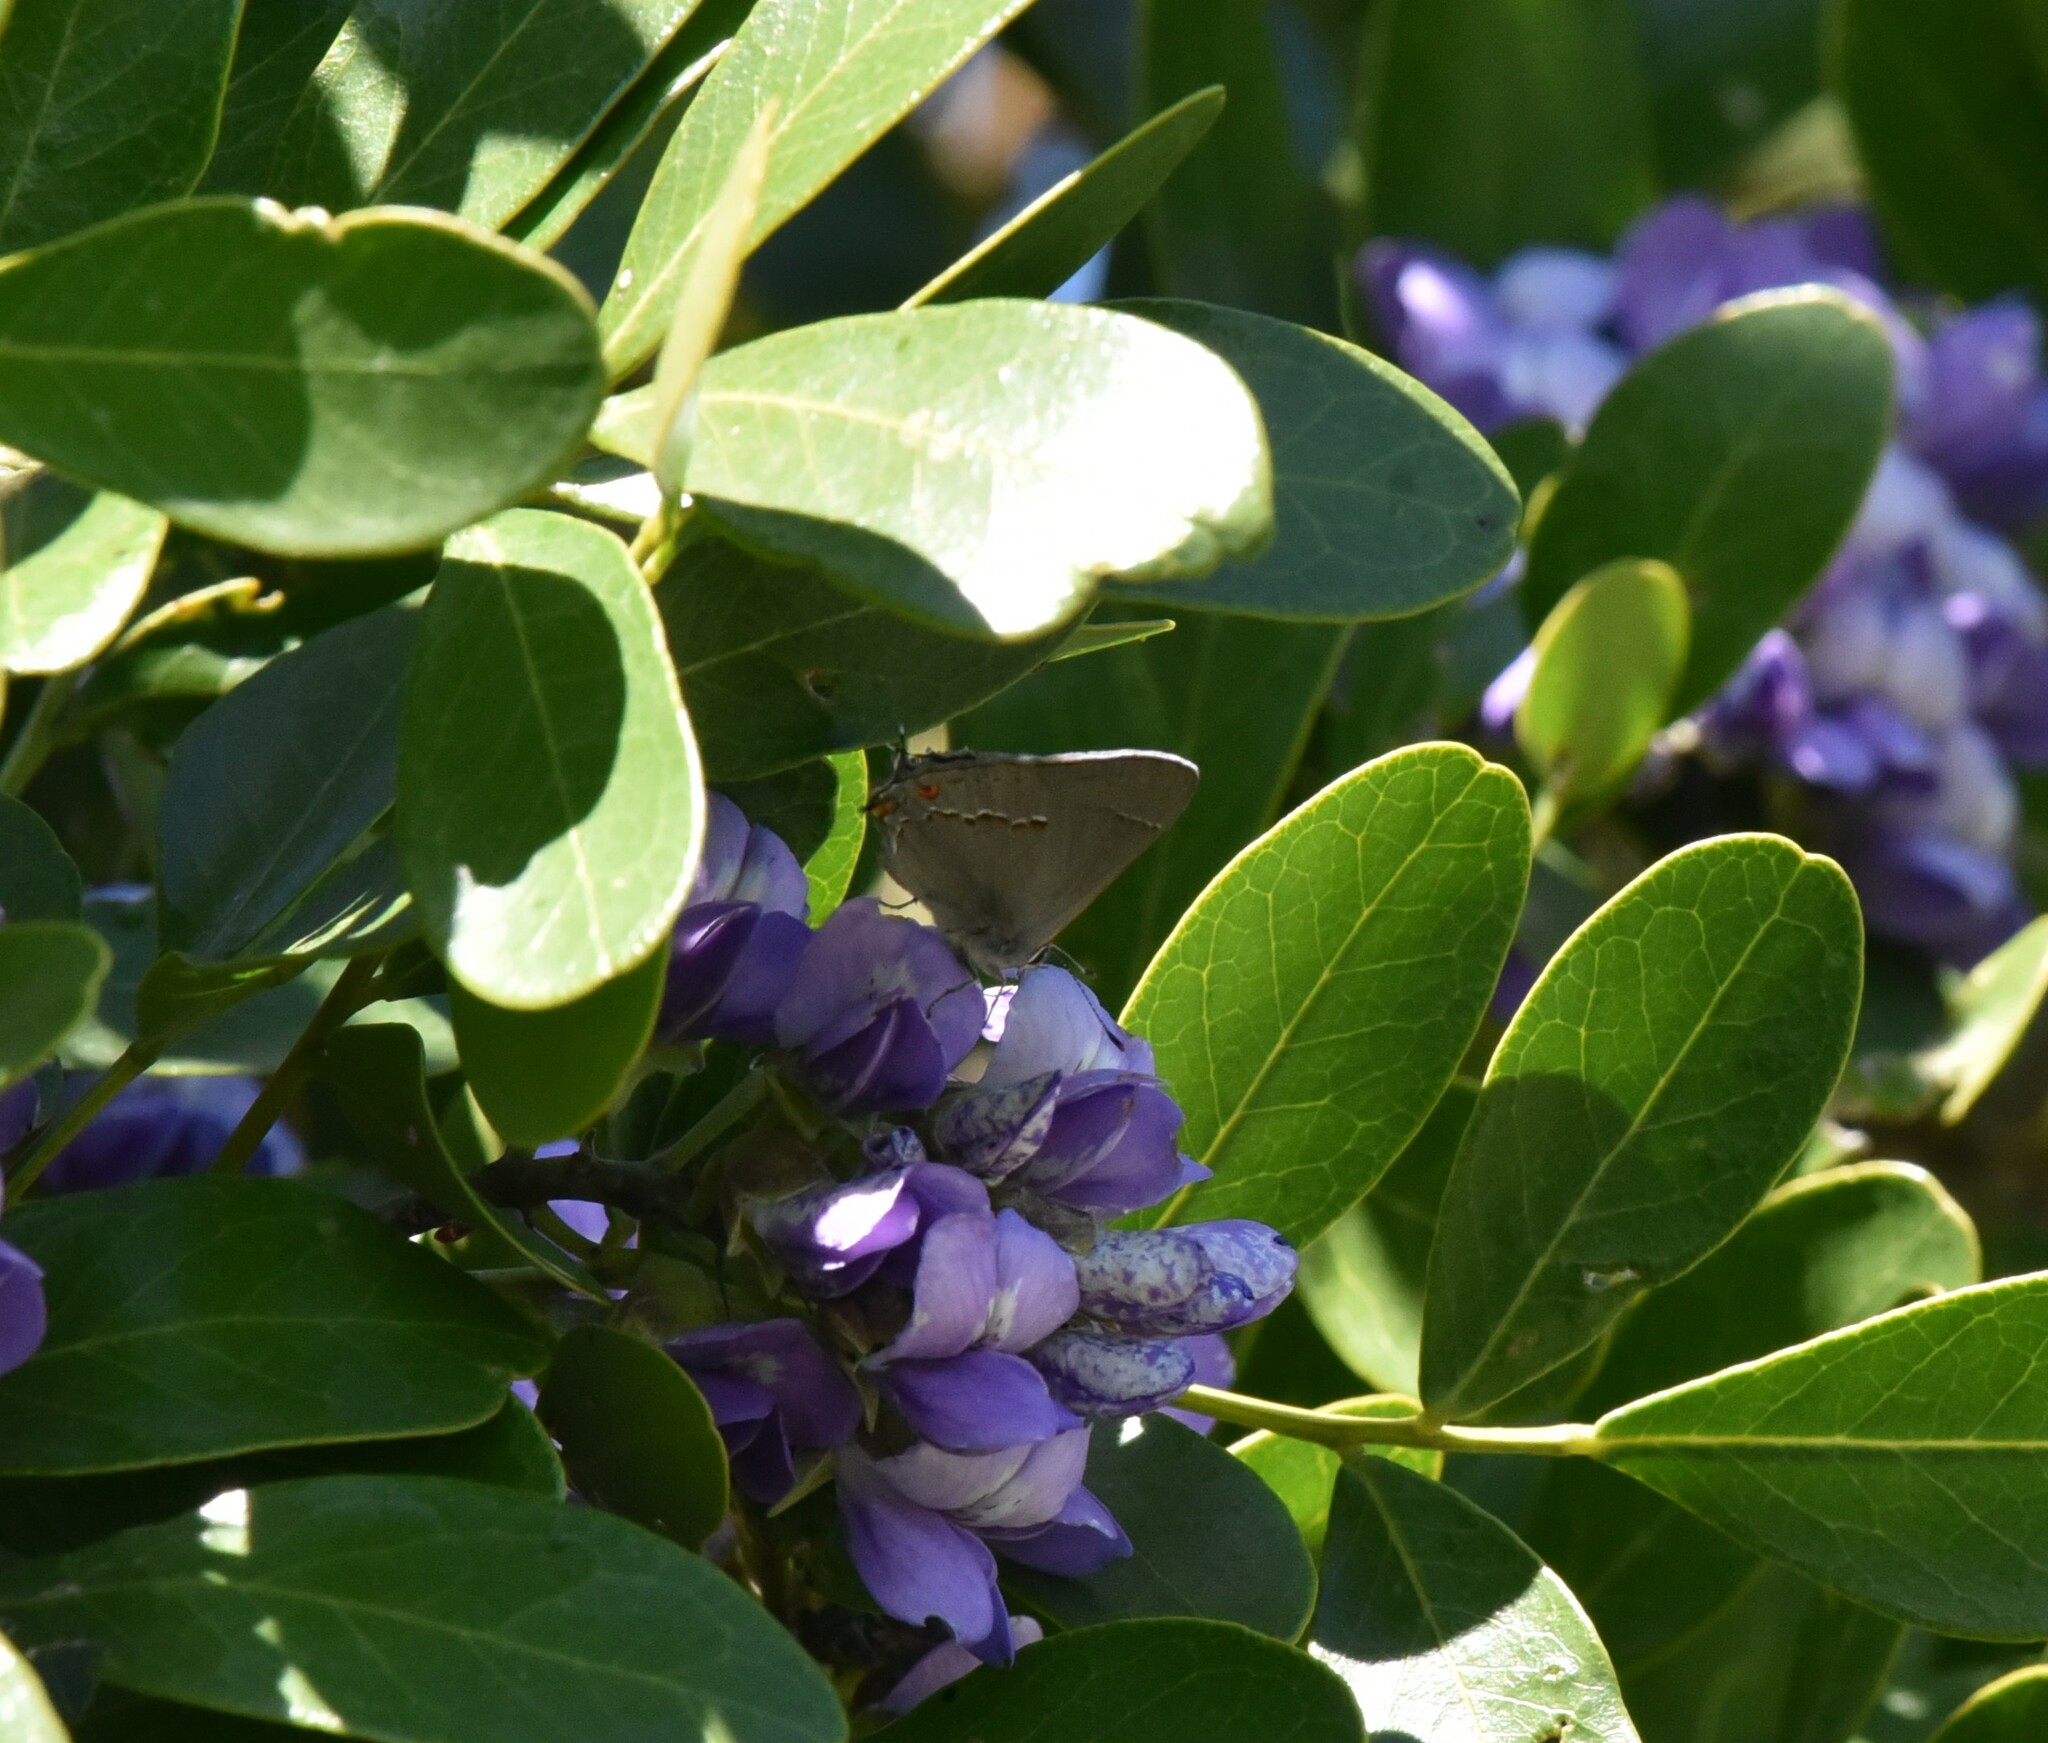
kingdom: Animalia
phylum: Arthropoda
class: Insecta
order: Lepidoptera
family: Lycaenidae
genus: Strymon
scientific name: Strymon melinus
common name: Gray hairstreak
